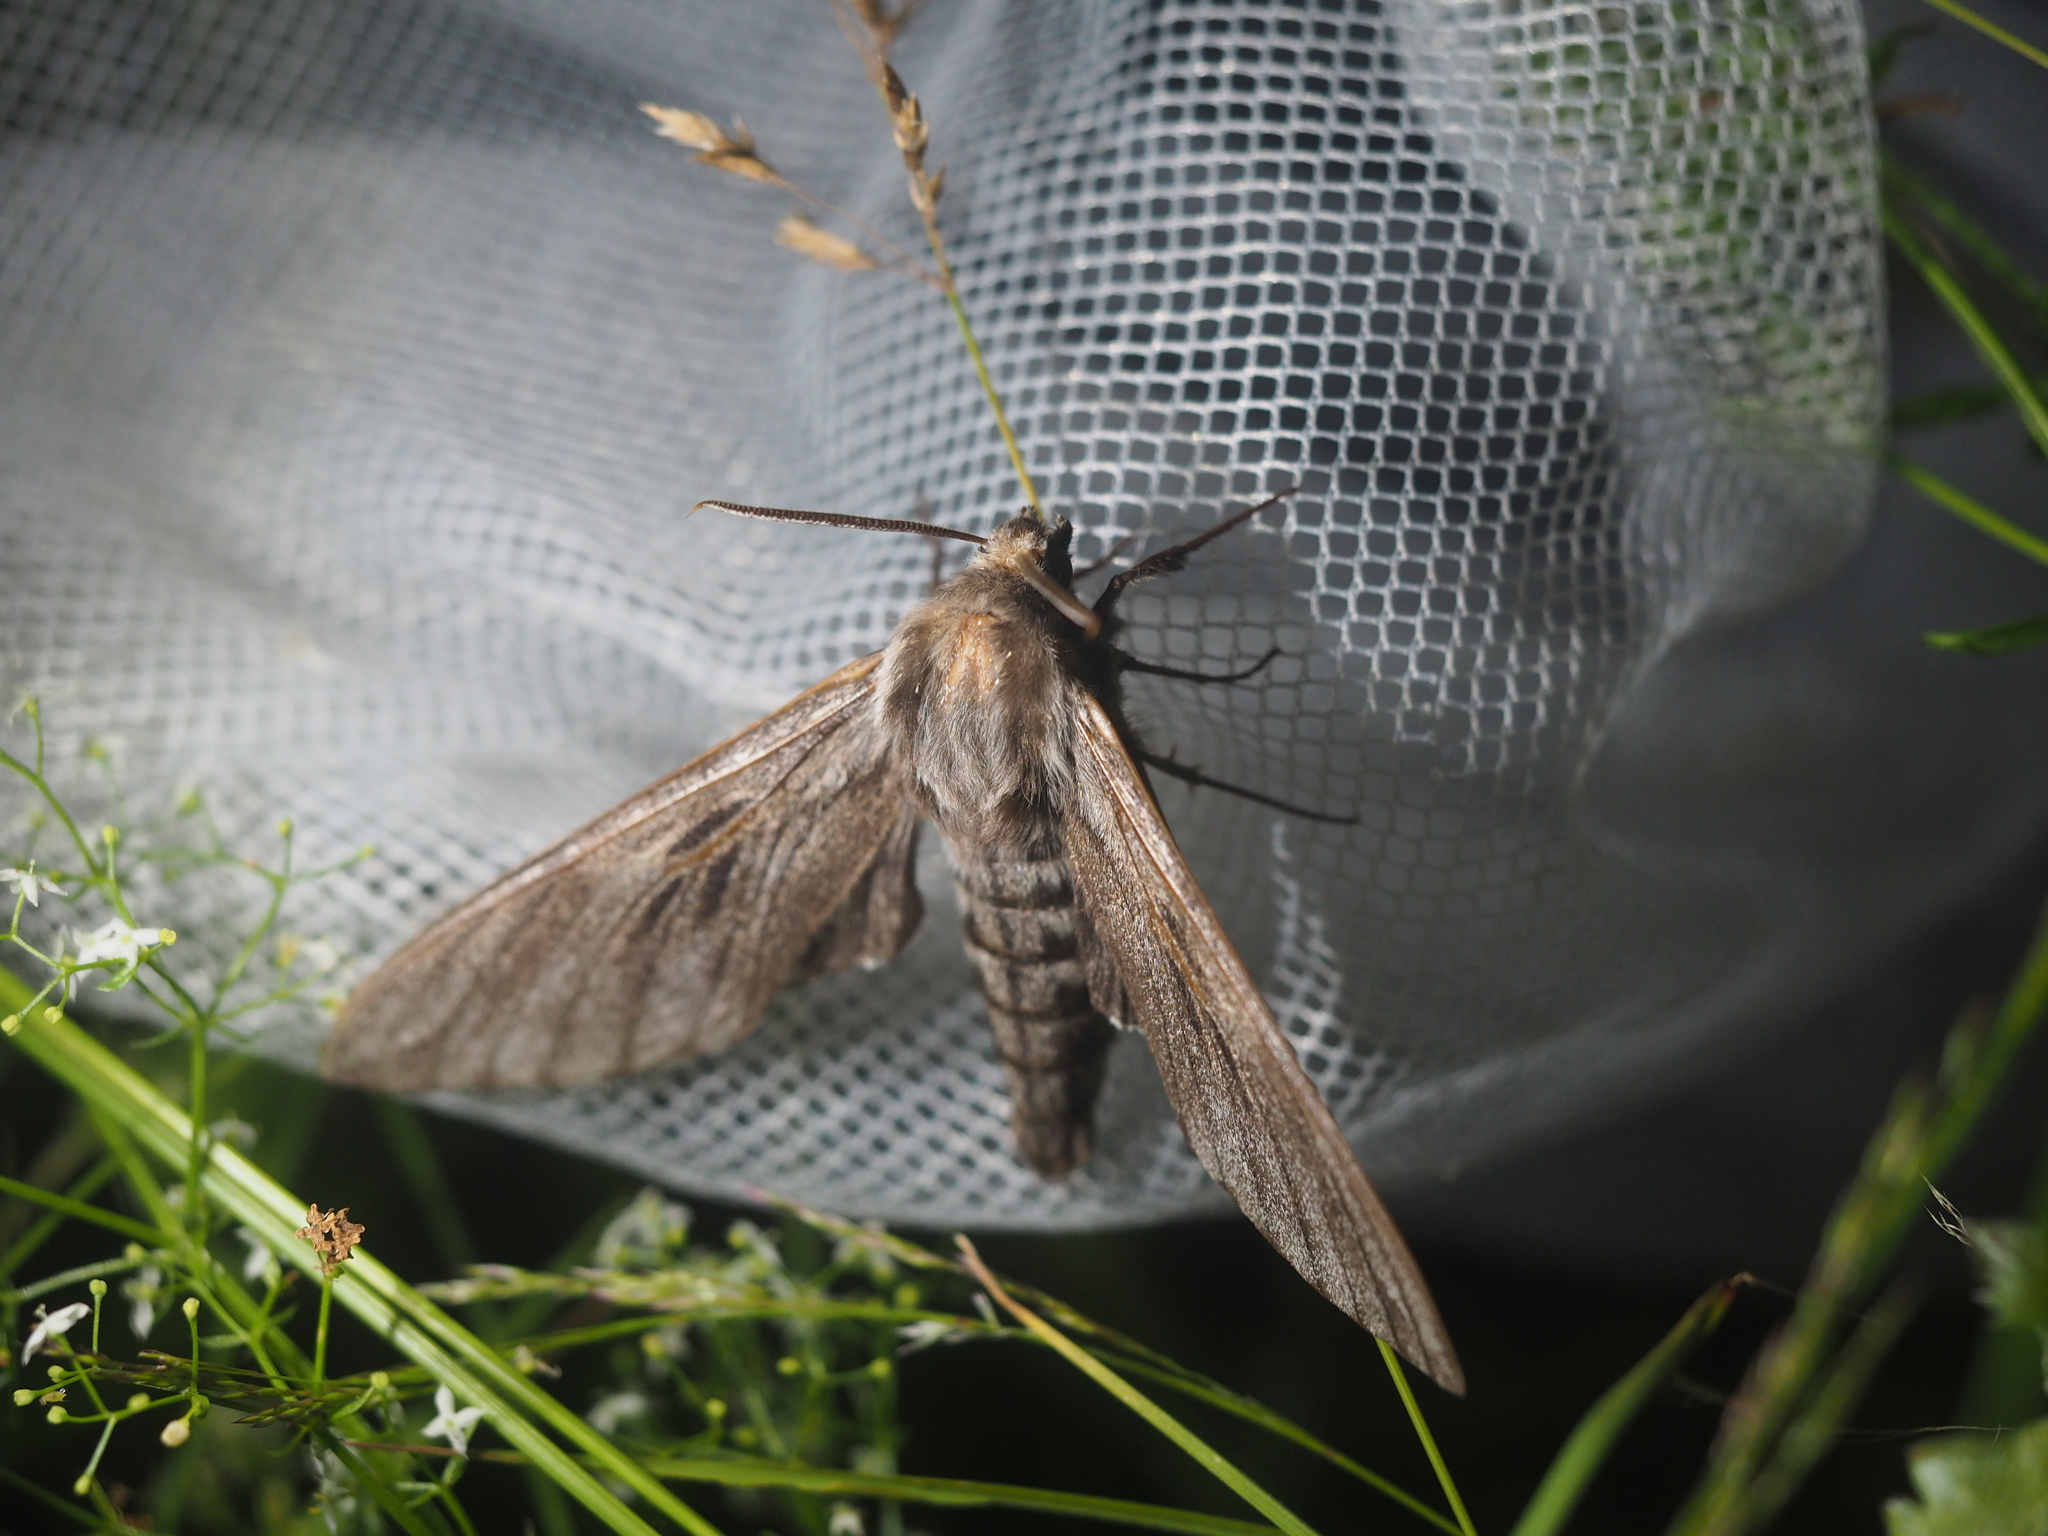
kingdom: Animalia
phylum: Arthropoda
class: Insecta
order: Lepidoptera
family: Sphingidae
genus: Sphinx
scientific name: Sphinx pinastri
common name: Pine hawk-moth
